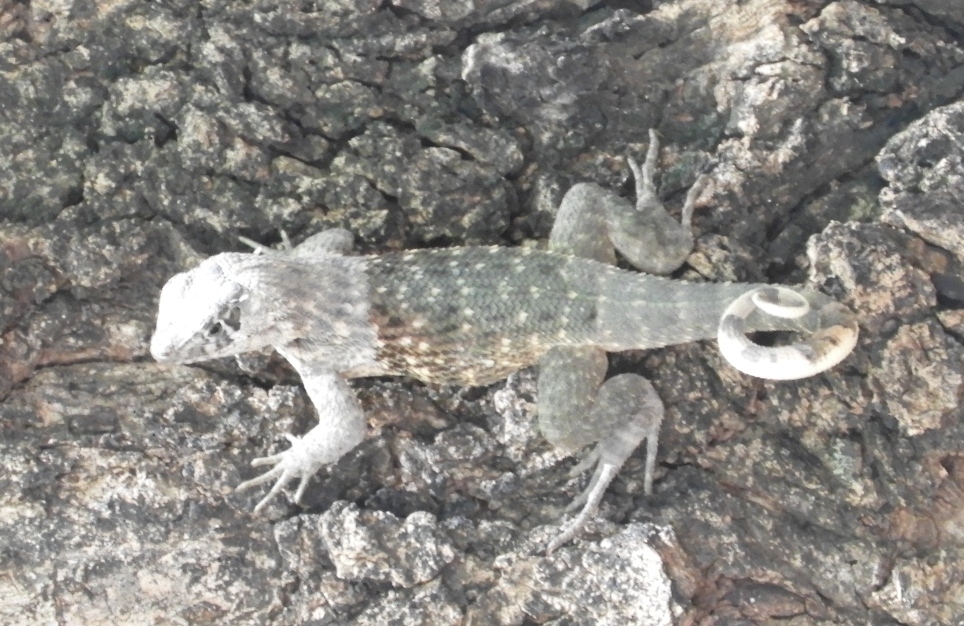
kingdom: Animalia
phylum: Chordata
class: Squamata
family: Leiocephalidae
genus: Leiocephalus
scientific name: Leiocephalus carinatus
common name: Northern curly-tailed lizard
